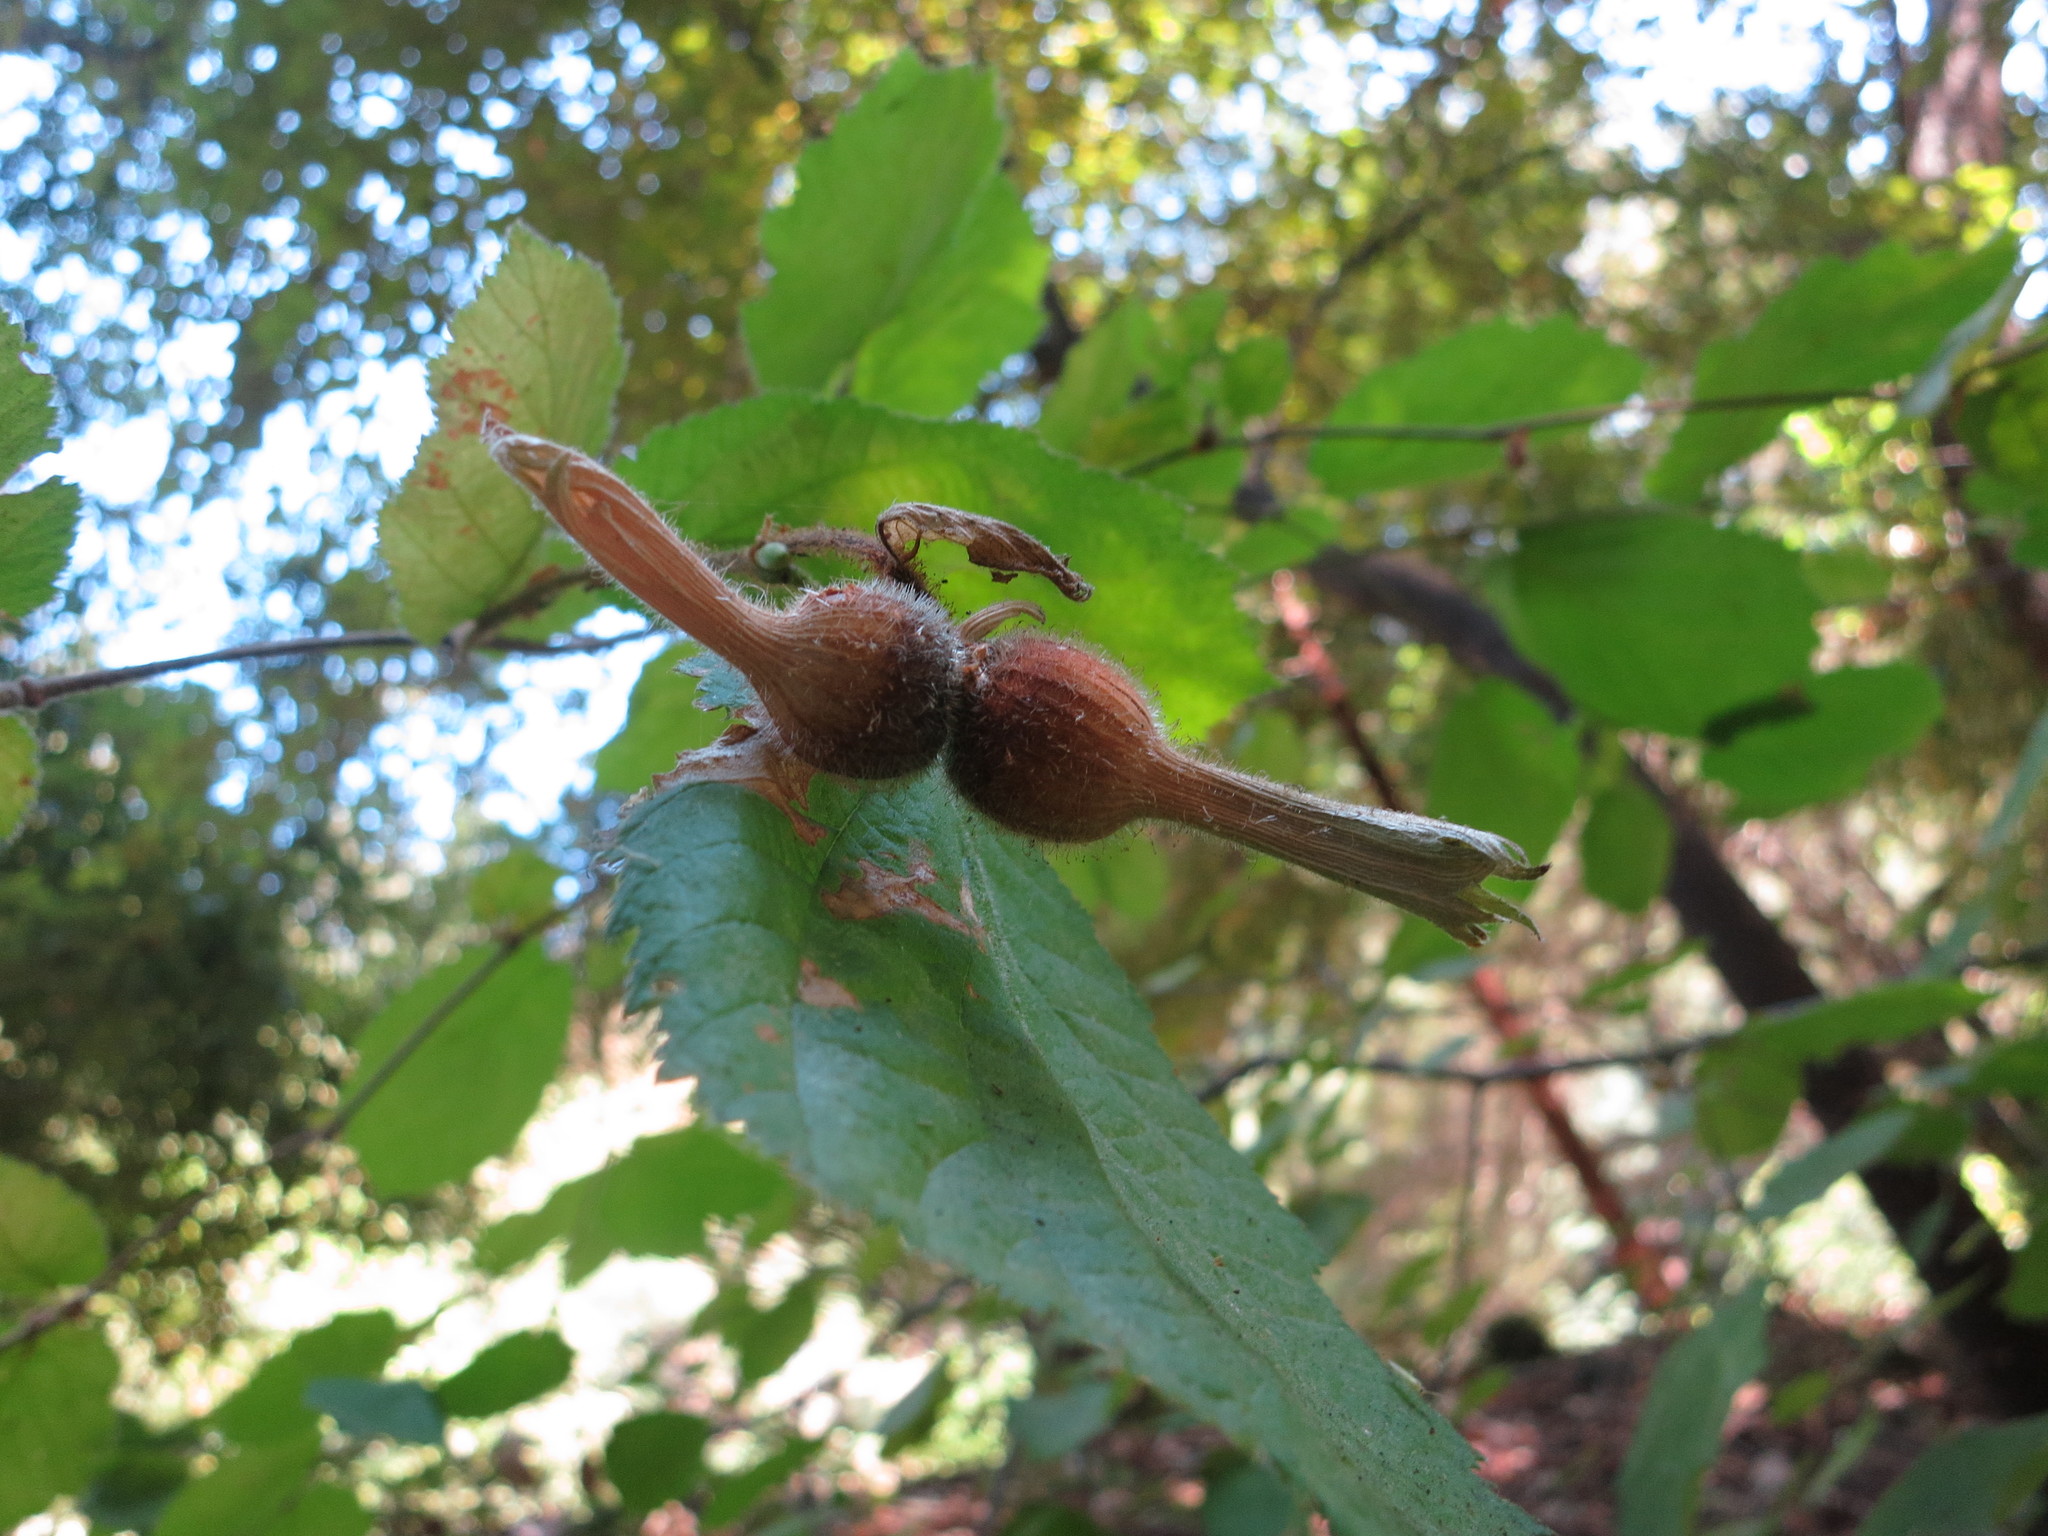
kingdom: Plantae
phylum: Tracheophyta
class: Magnoliopsida
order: Fagales
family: Betulaceae
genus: Corylus
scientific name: Corylus cornuta
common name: Beaked hazel
